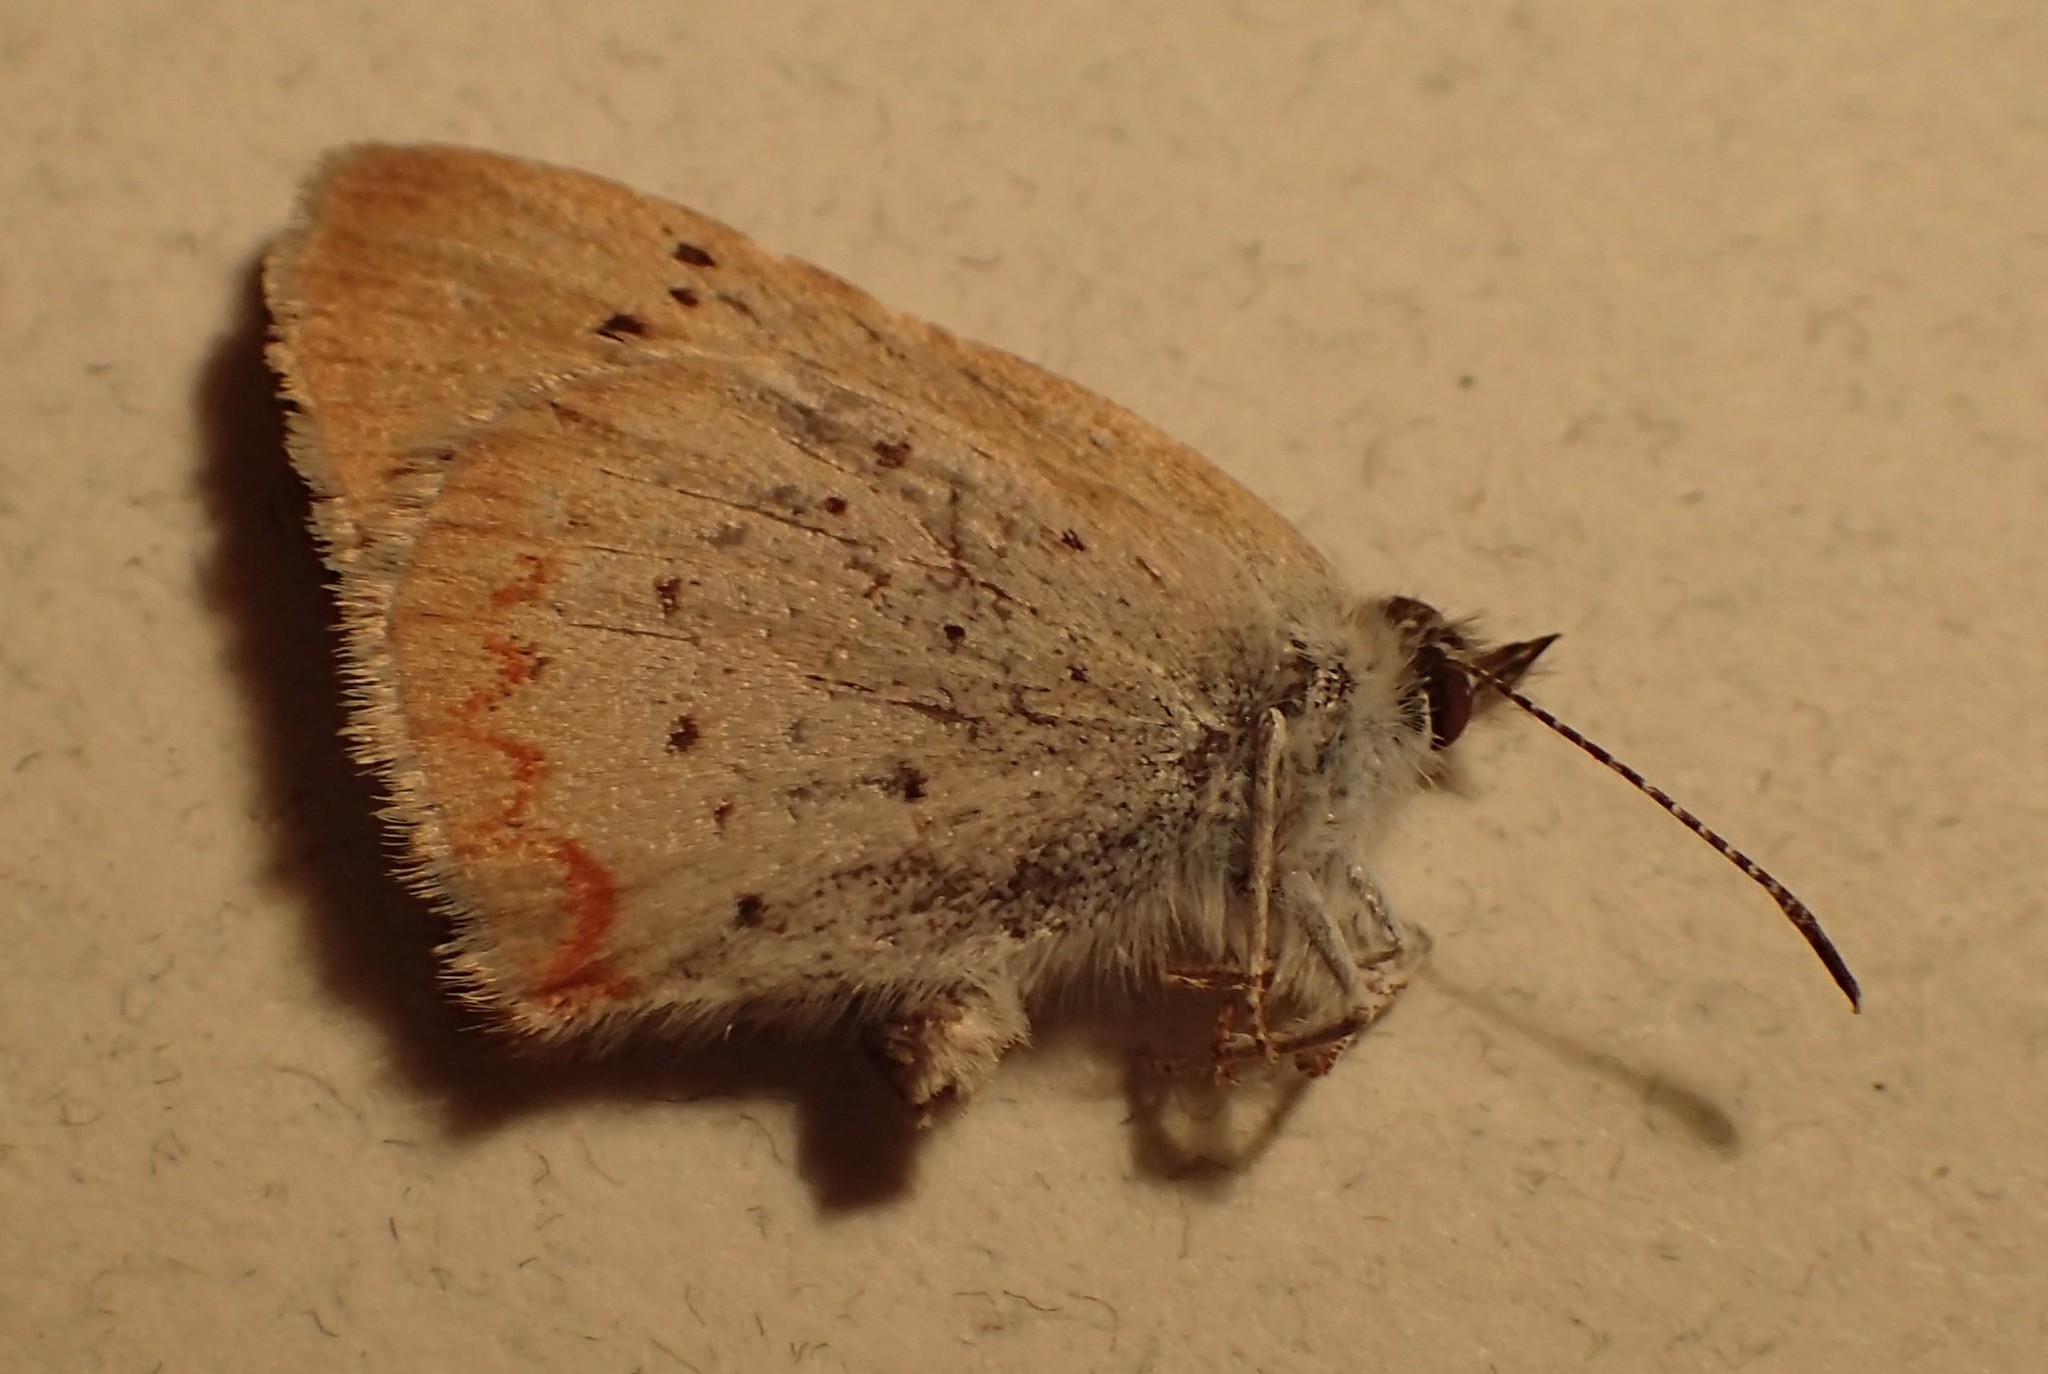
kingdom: Animalia
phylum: Arthropoda
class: Insecta
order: Lepidoptera
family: Lycaenidae
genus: Tharsalea
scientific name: Tharsalea dorcas
